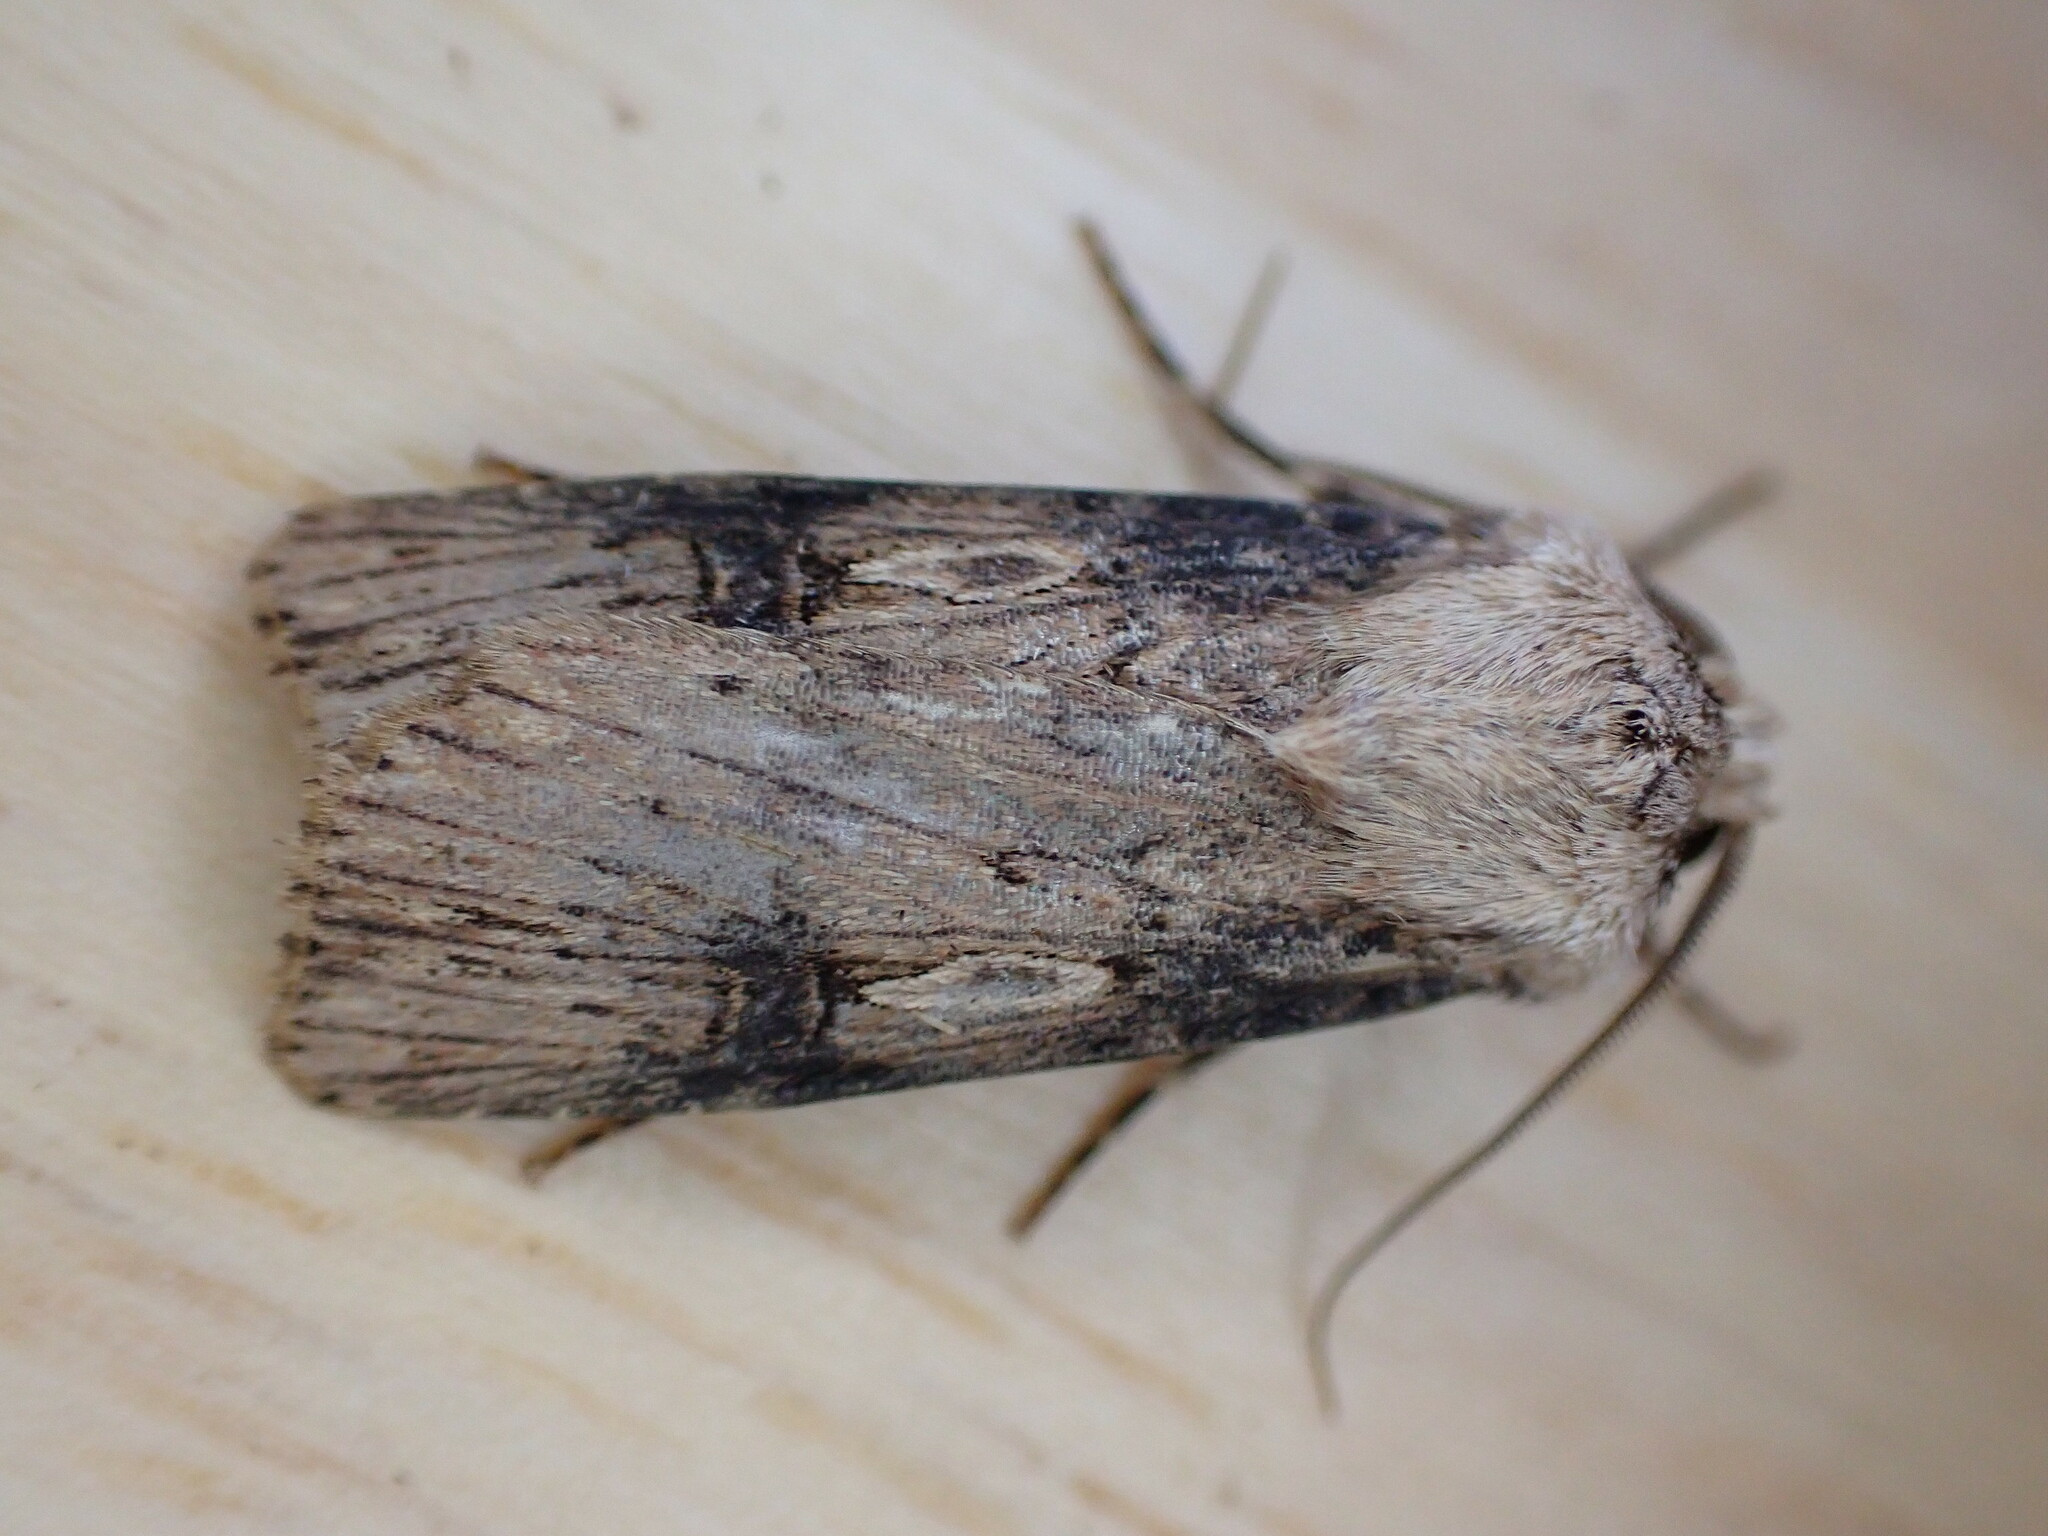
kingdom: Animalia
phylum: Arthropoda
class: Insecta
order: Lepidoptera
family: Noctuidae
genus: Agrotis
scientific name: Agrotis puta
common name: Shuttle-shaped dart
